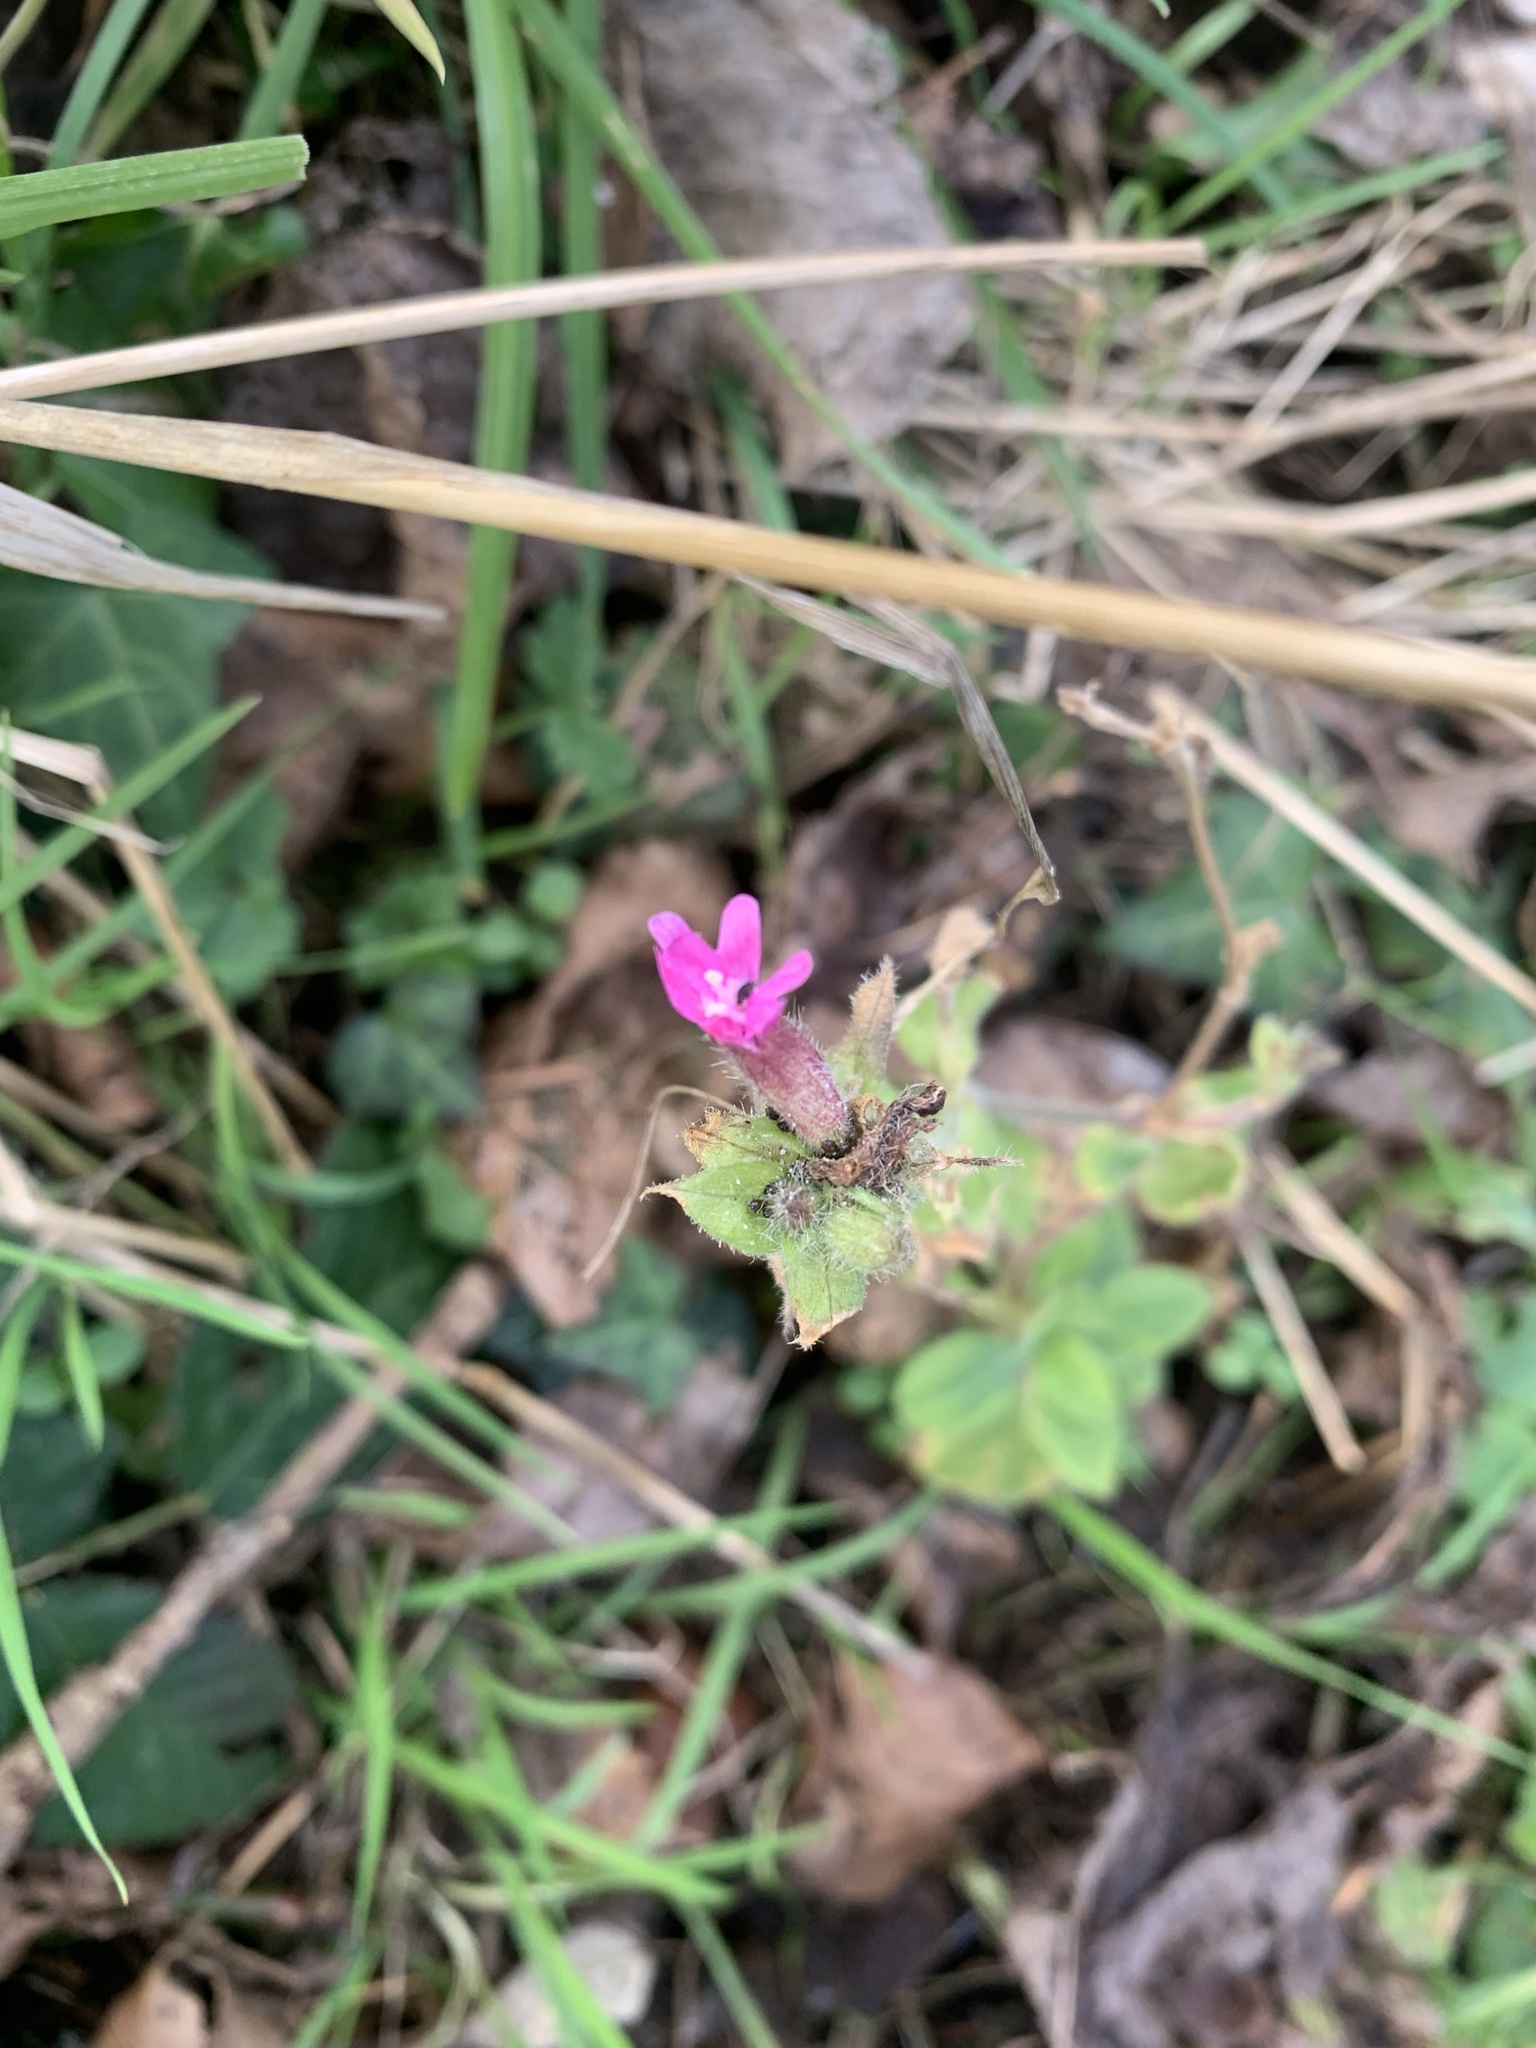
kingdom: Plantae
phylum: Tracheophyta
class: Magnoliopsida
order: Caryophyllales
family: Caryophyllaceae
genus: Silene
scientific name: Silene dioica
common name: Red campion
